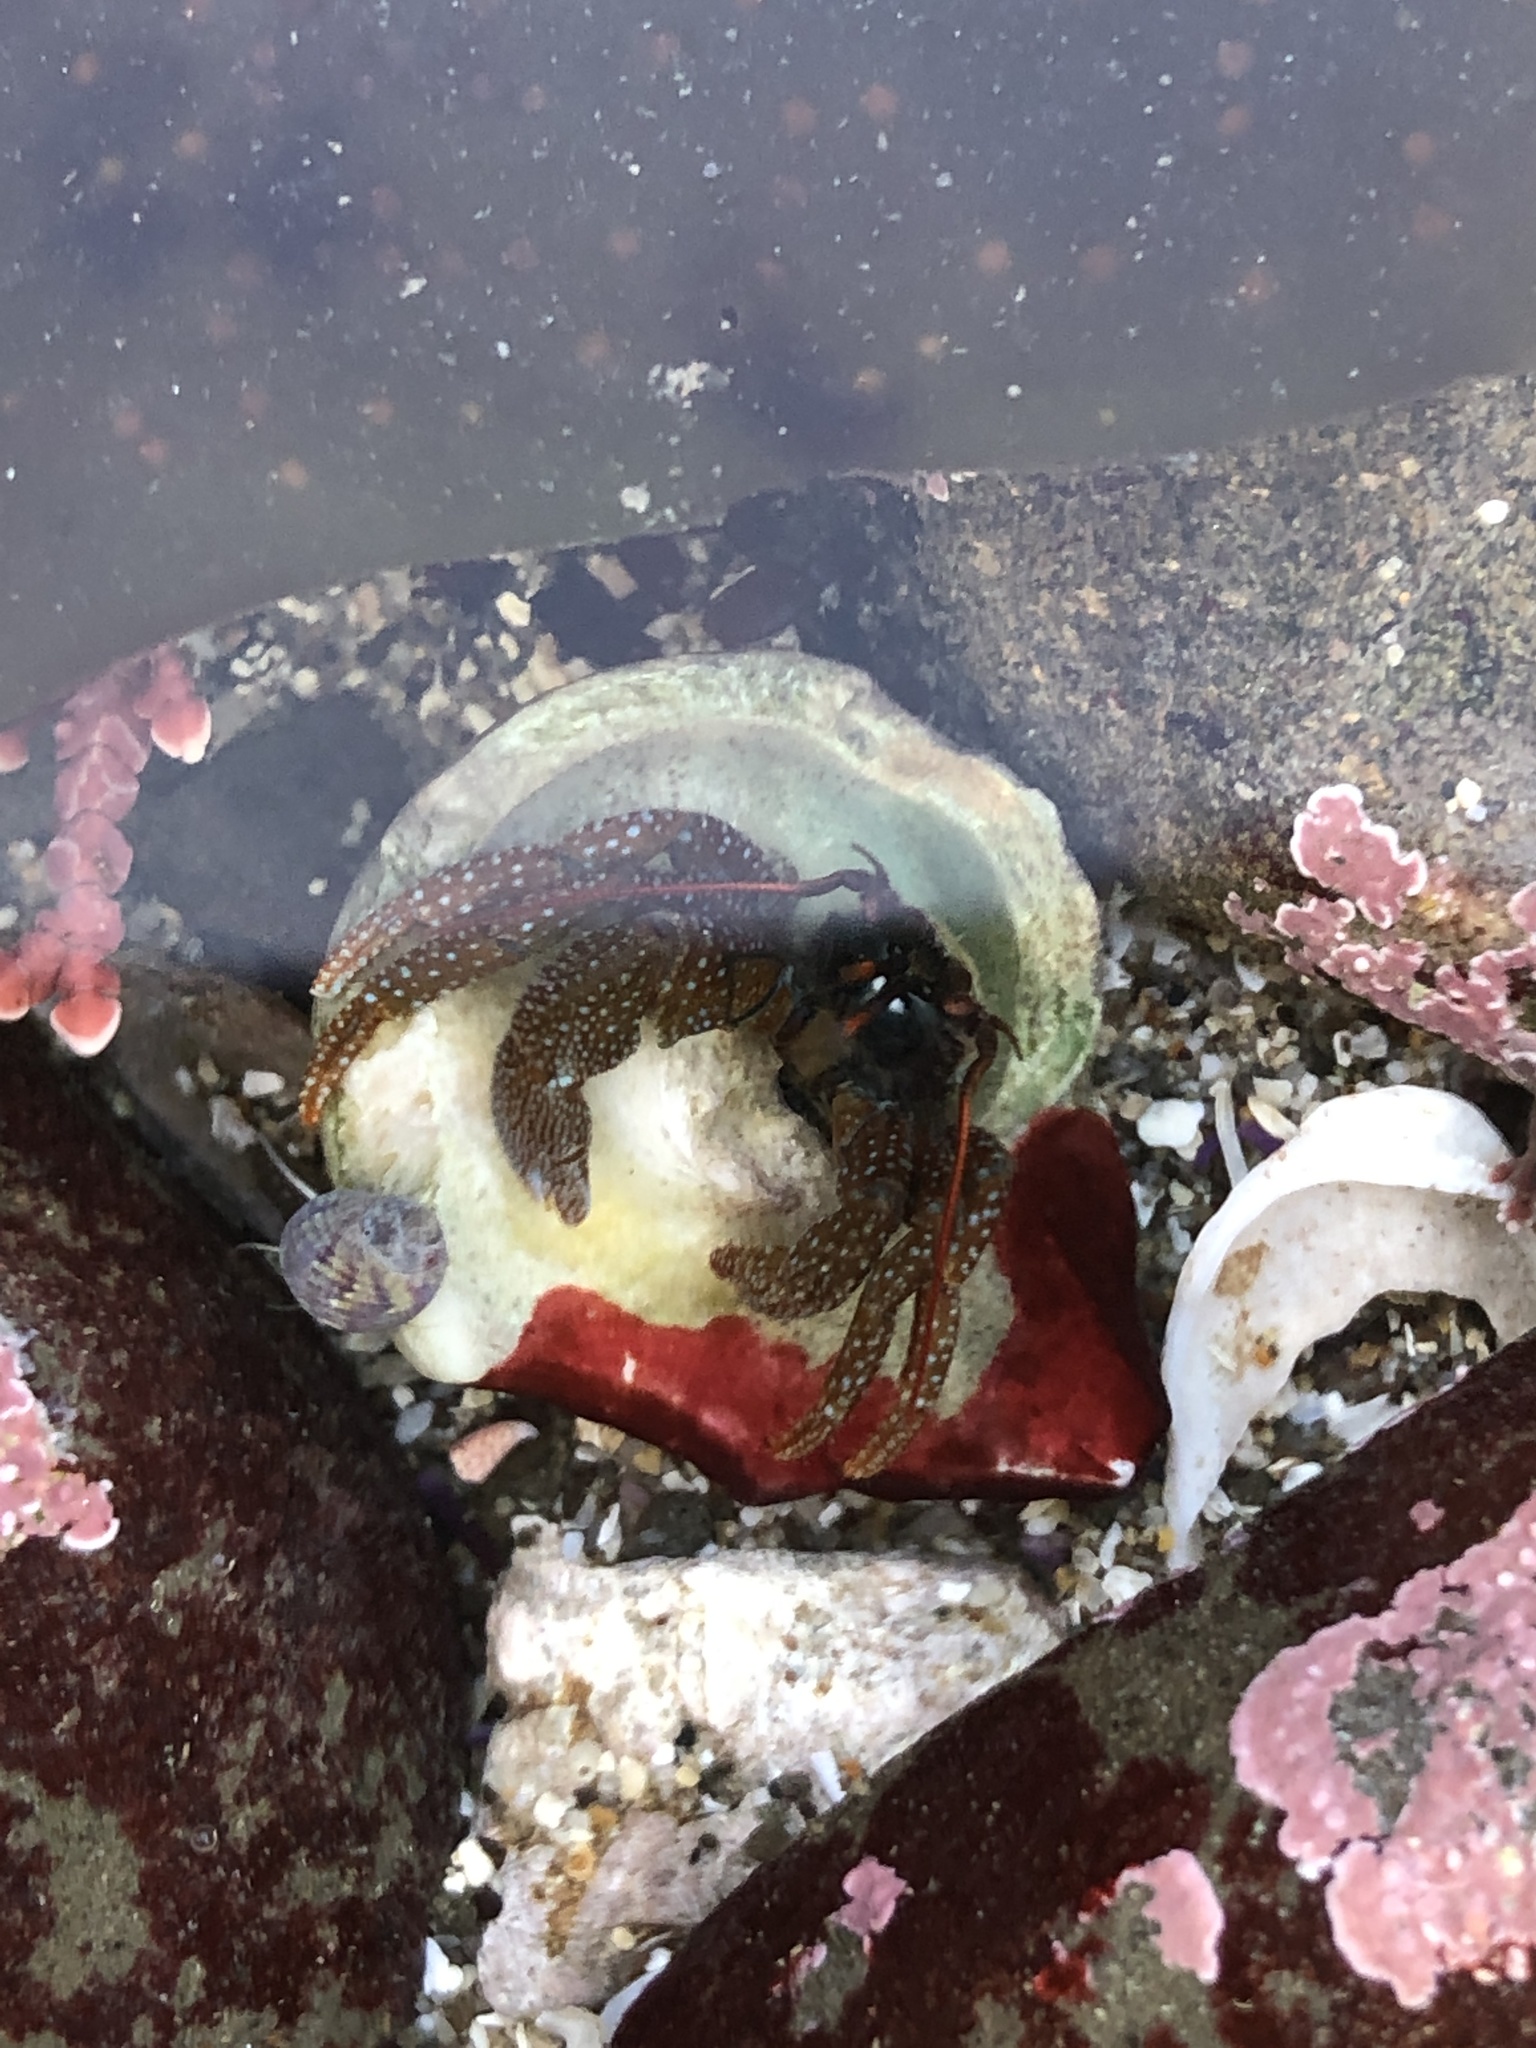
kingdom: Animalia
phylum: Arthropoda
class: Malacostraca
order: Decapoda
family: Paguridae
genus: Pagurus
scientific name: Pagurus granosimanus
